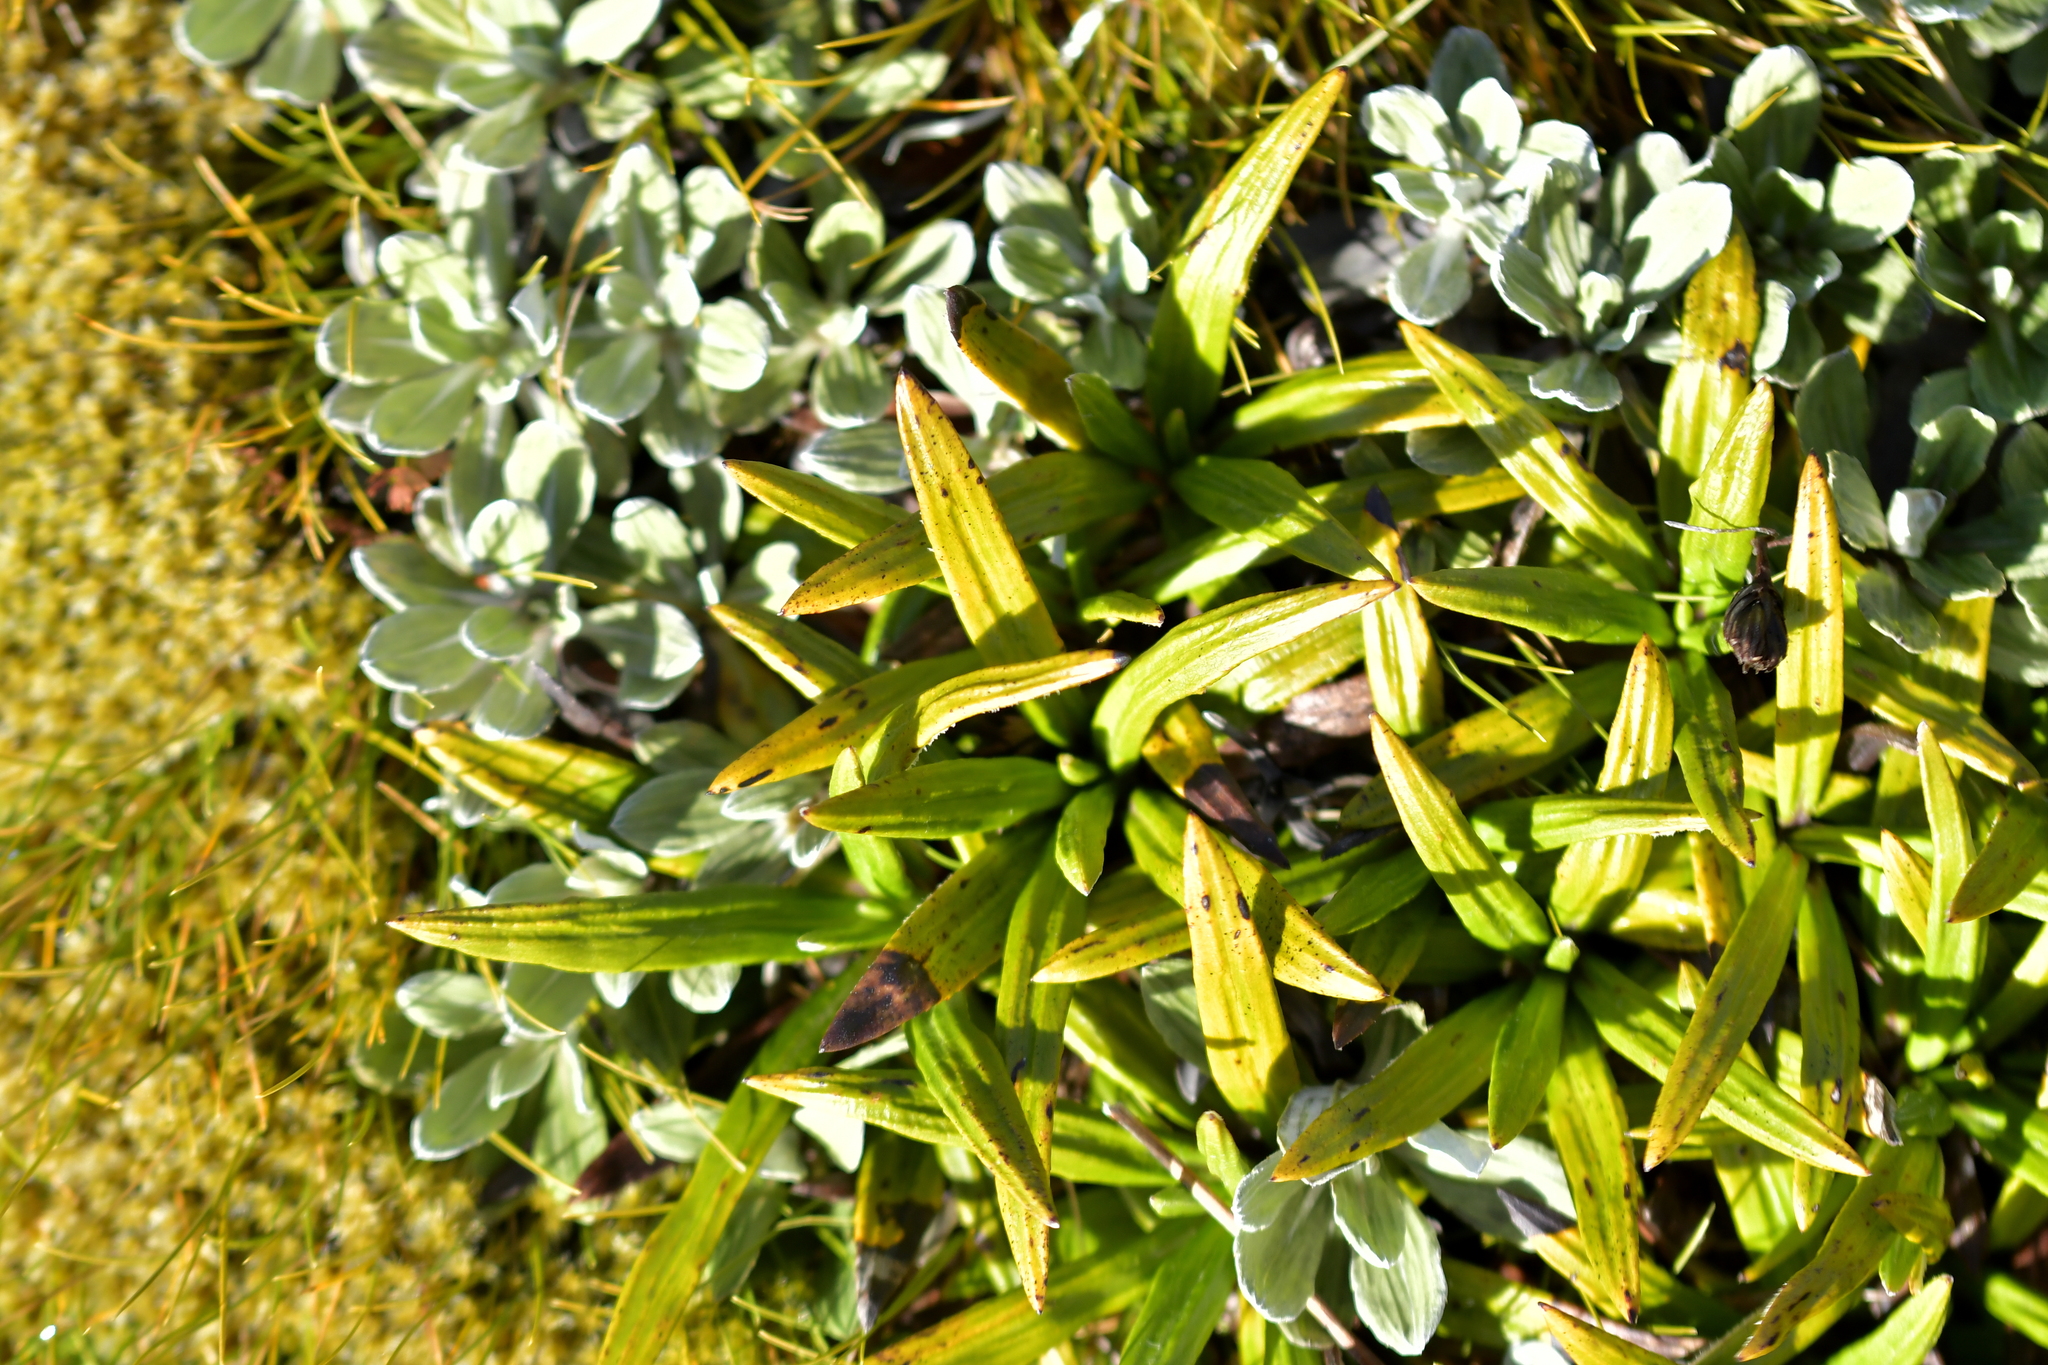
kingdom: Plantae
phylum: Tracheophyta
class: Magnoliopsida
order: Asterales
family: Asteraceae
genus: Celmisia
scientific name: Celmisia spectabilis
